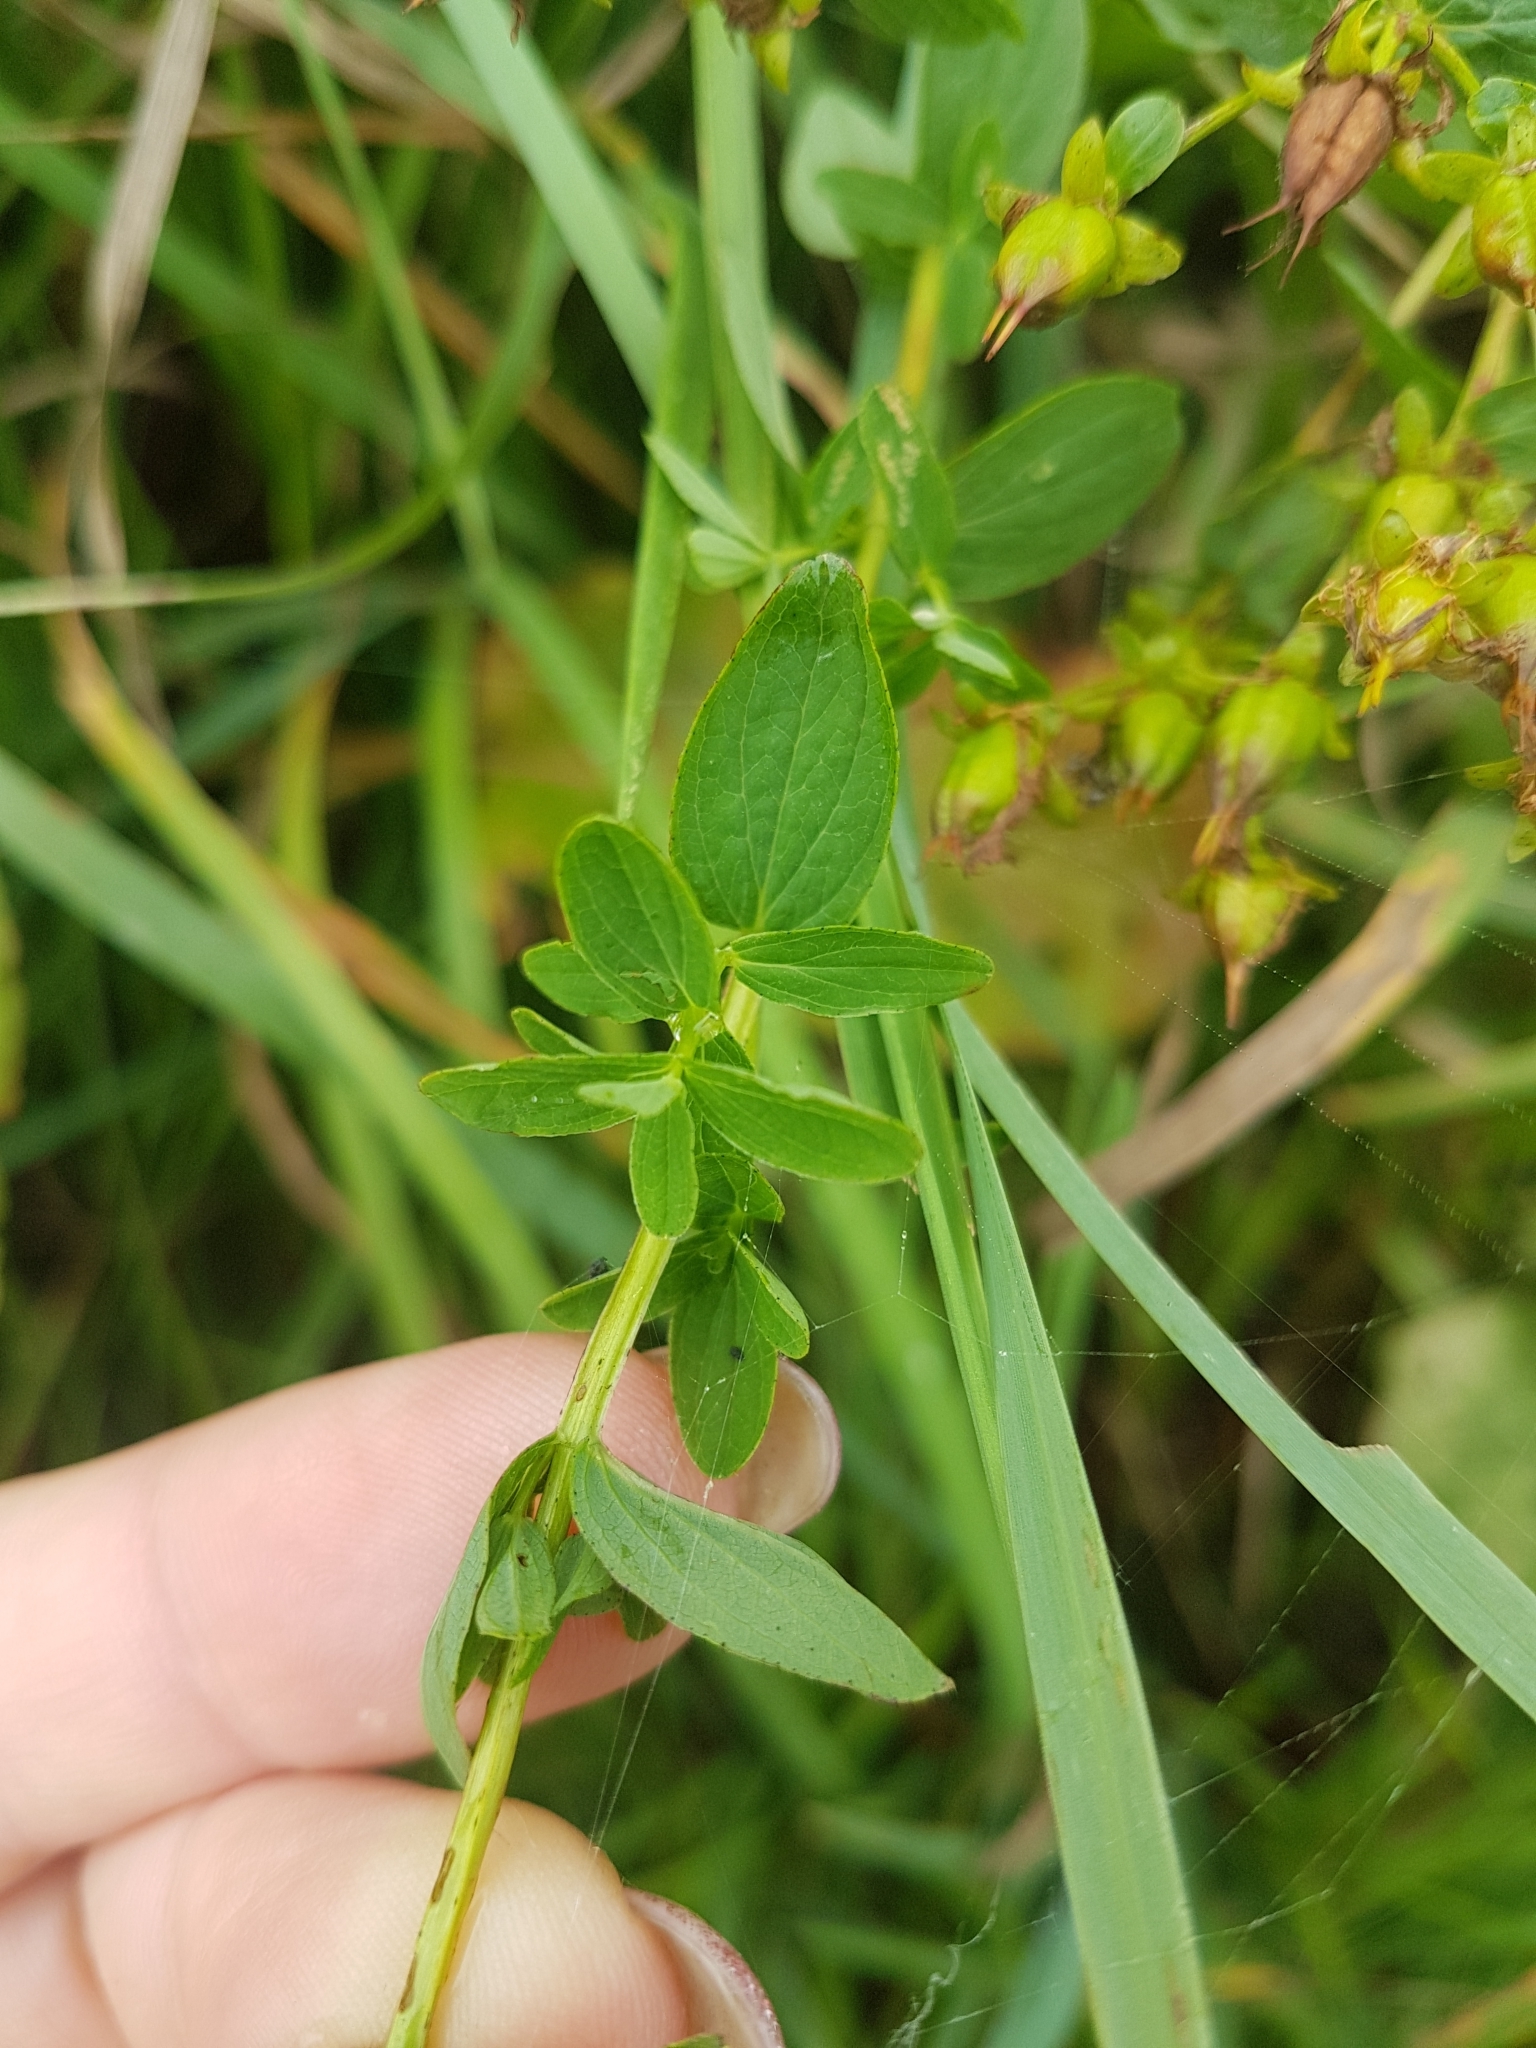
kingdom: Plantae
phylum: Tracheophyta
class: Magnoliopsida
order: Malpighiales
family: Hypericaceae
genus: Hypericum
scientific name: Hypericum maculatum
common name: Imperforate st. john's-wort
